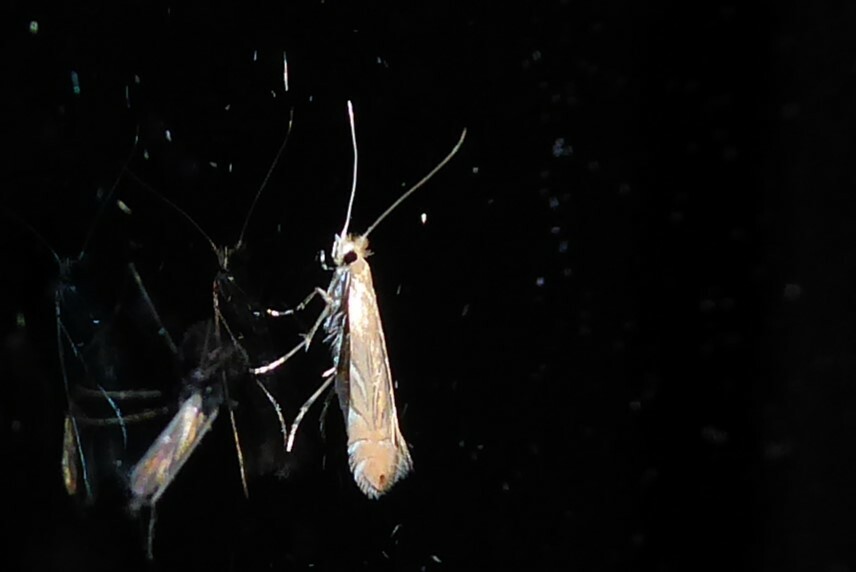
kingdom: Animalia
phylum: Arthropoda
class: Insecta
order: Lepidoptera
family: Gracillariidae
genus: Phyllonorycter
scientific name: Phyllonorycter messaniella
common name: Garden midget
